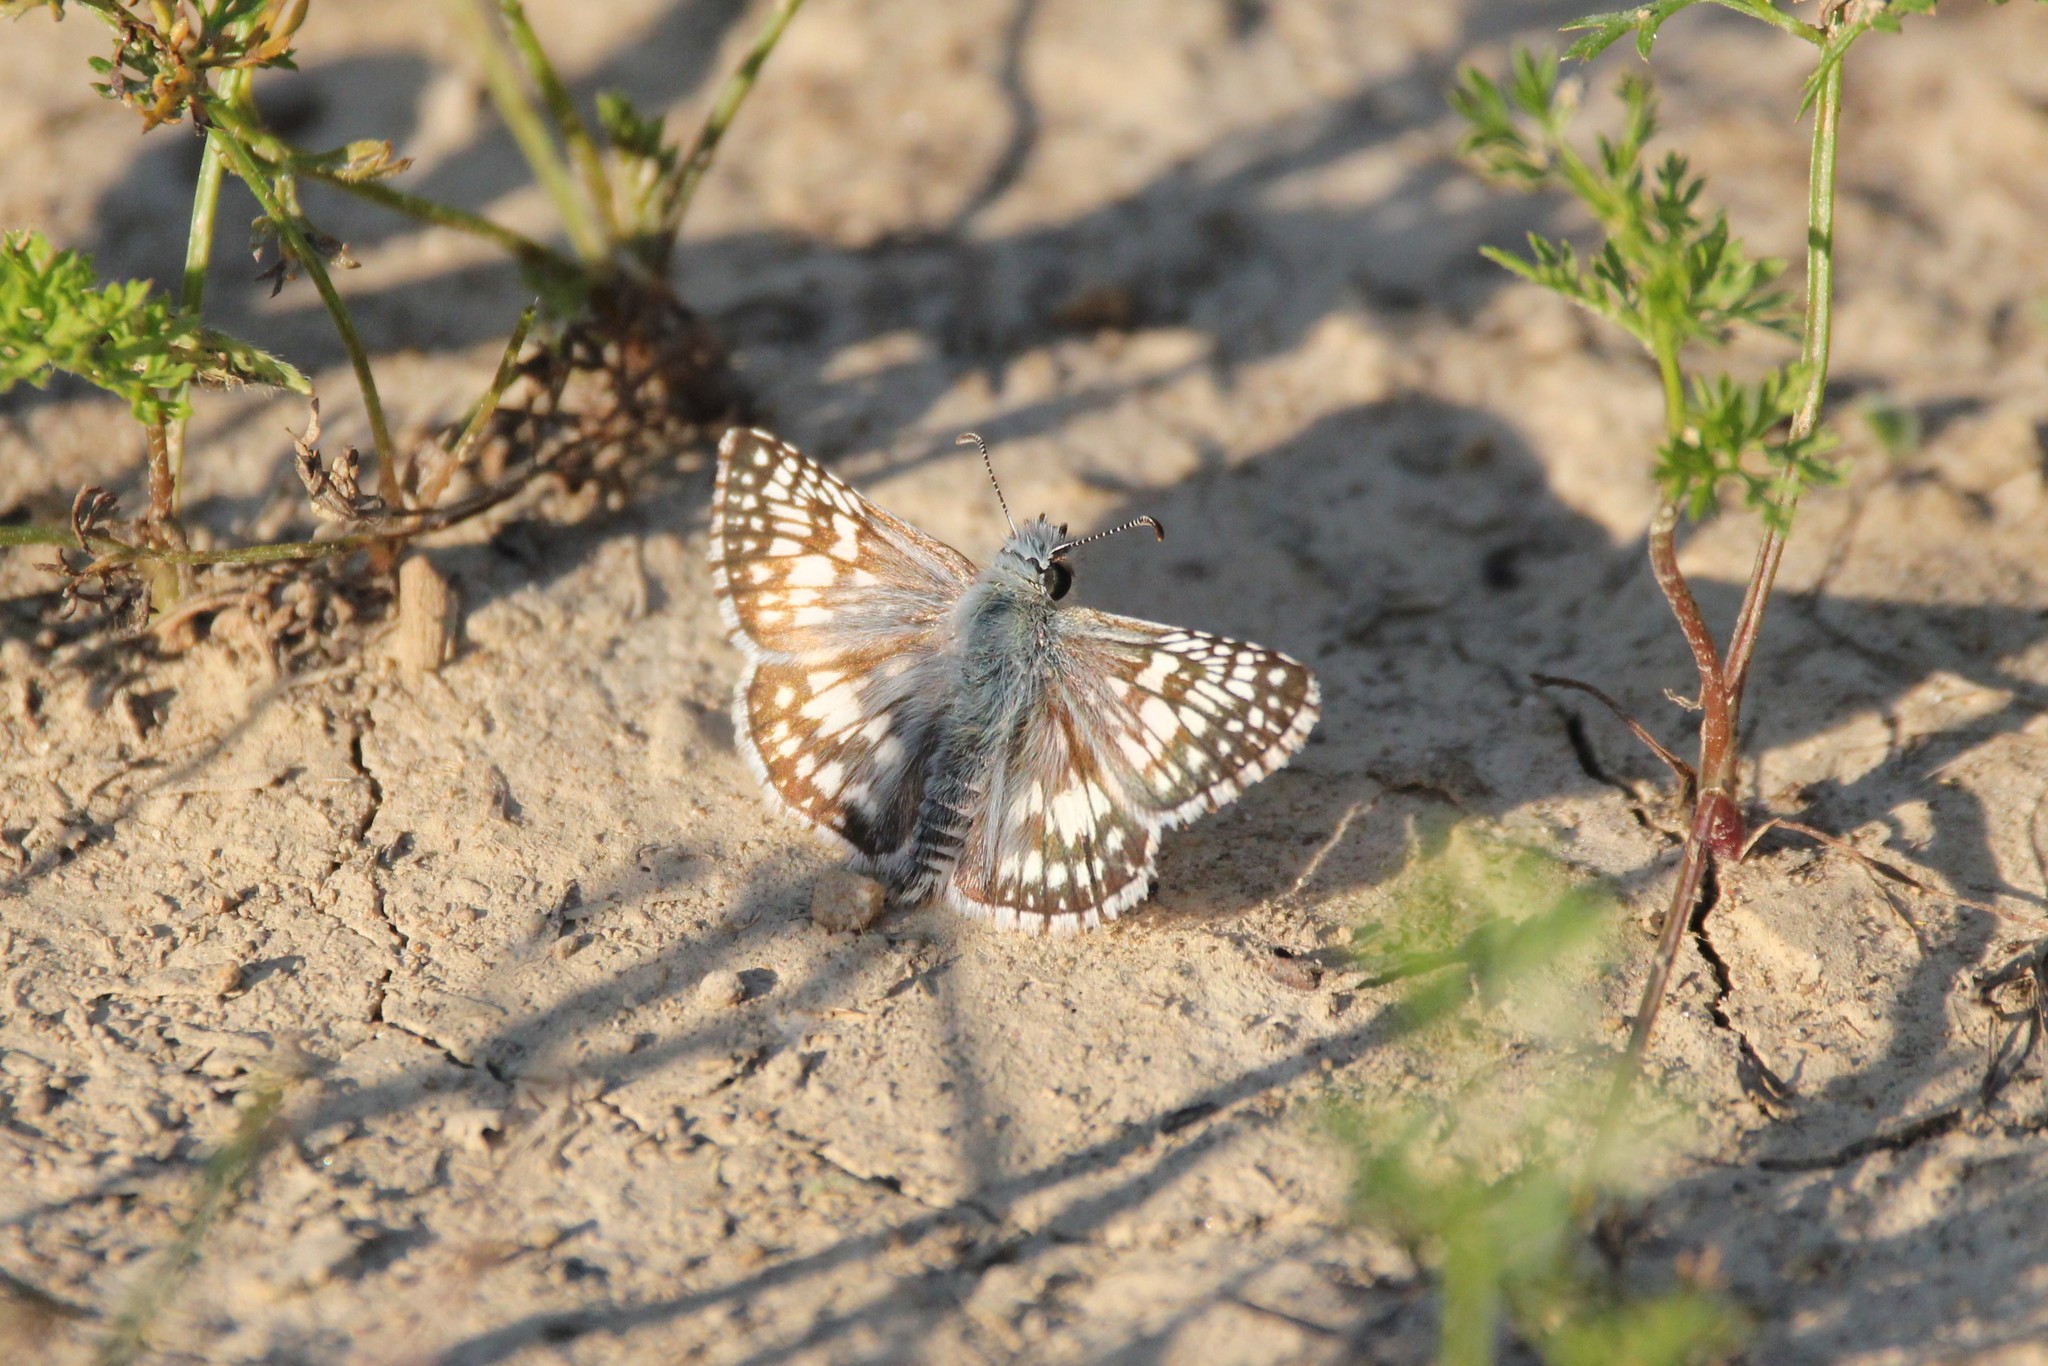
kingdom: Animalia
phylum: Arthropoda
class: Insecta
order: Lepidoptera
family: Hesperiidae
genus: Burnsius
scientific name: Burnsius communis
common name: Common checkered-skipper
